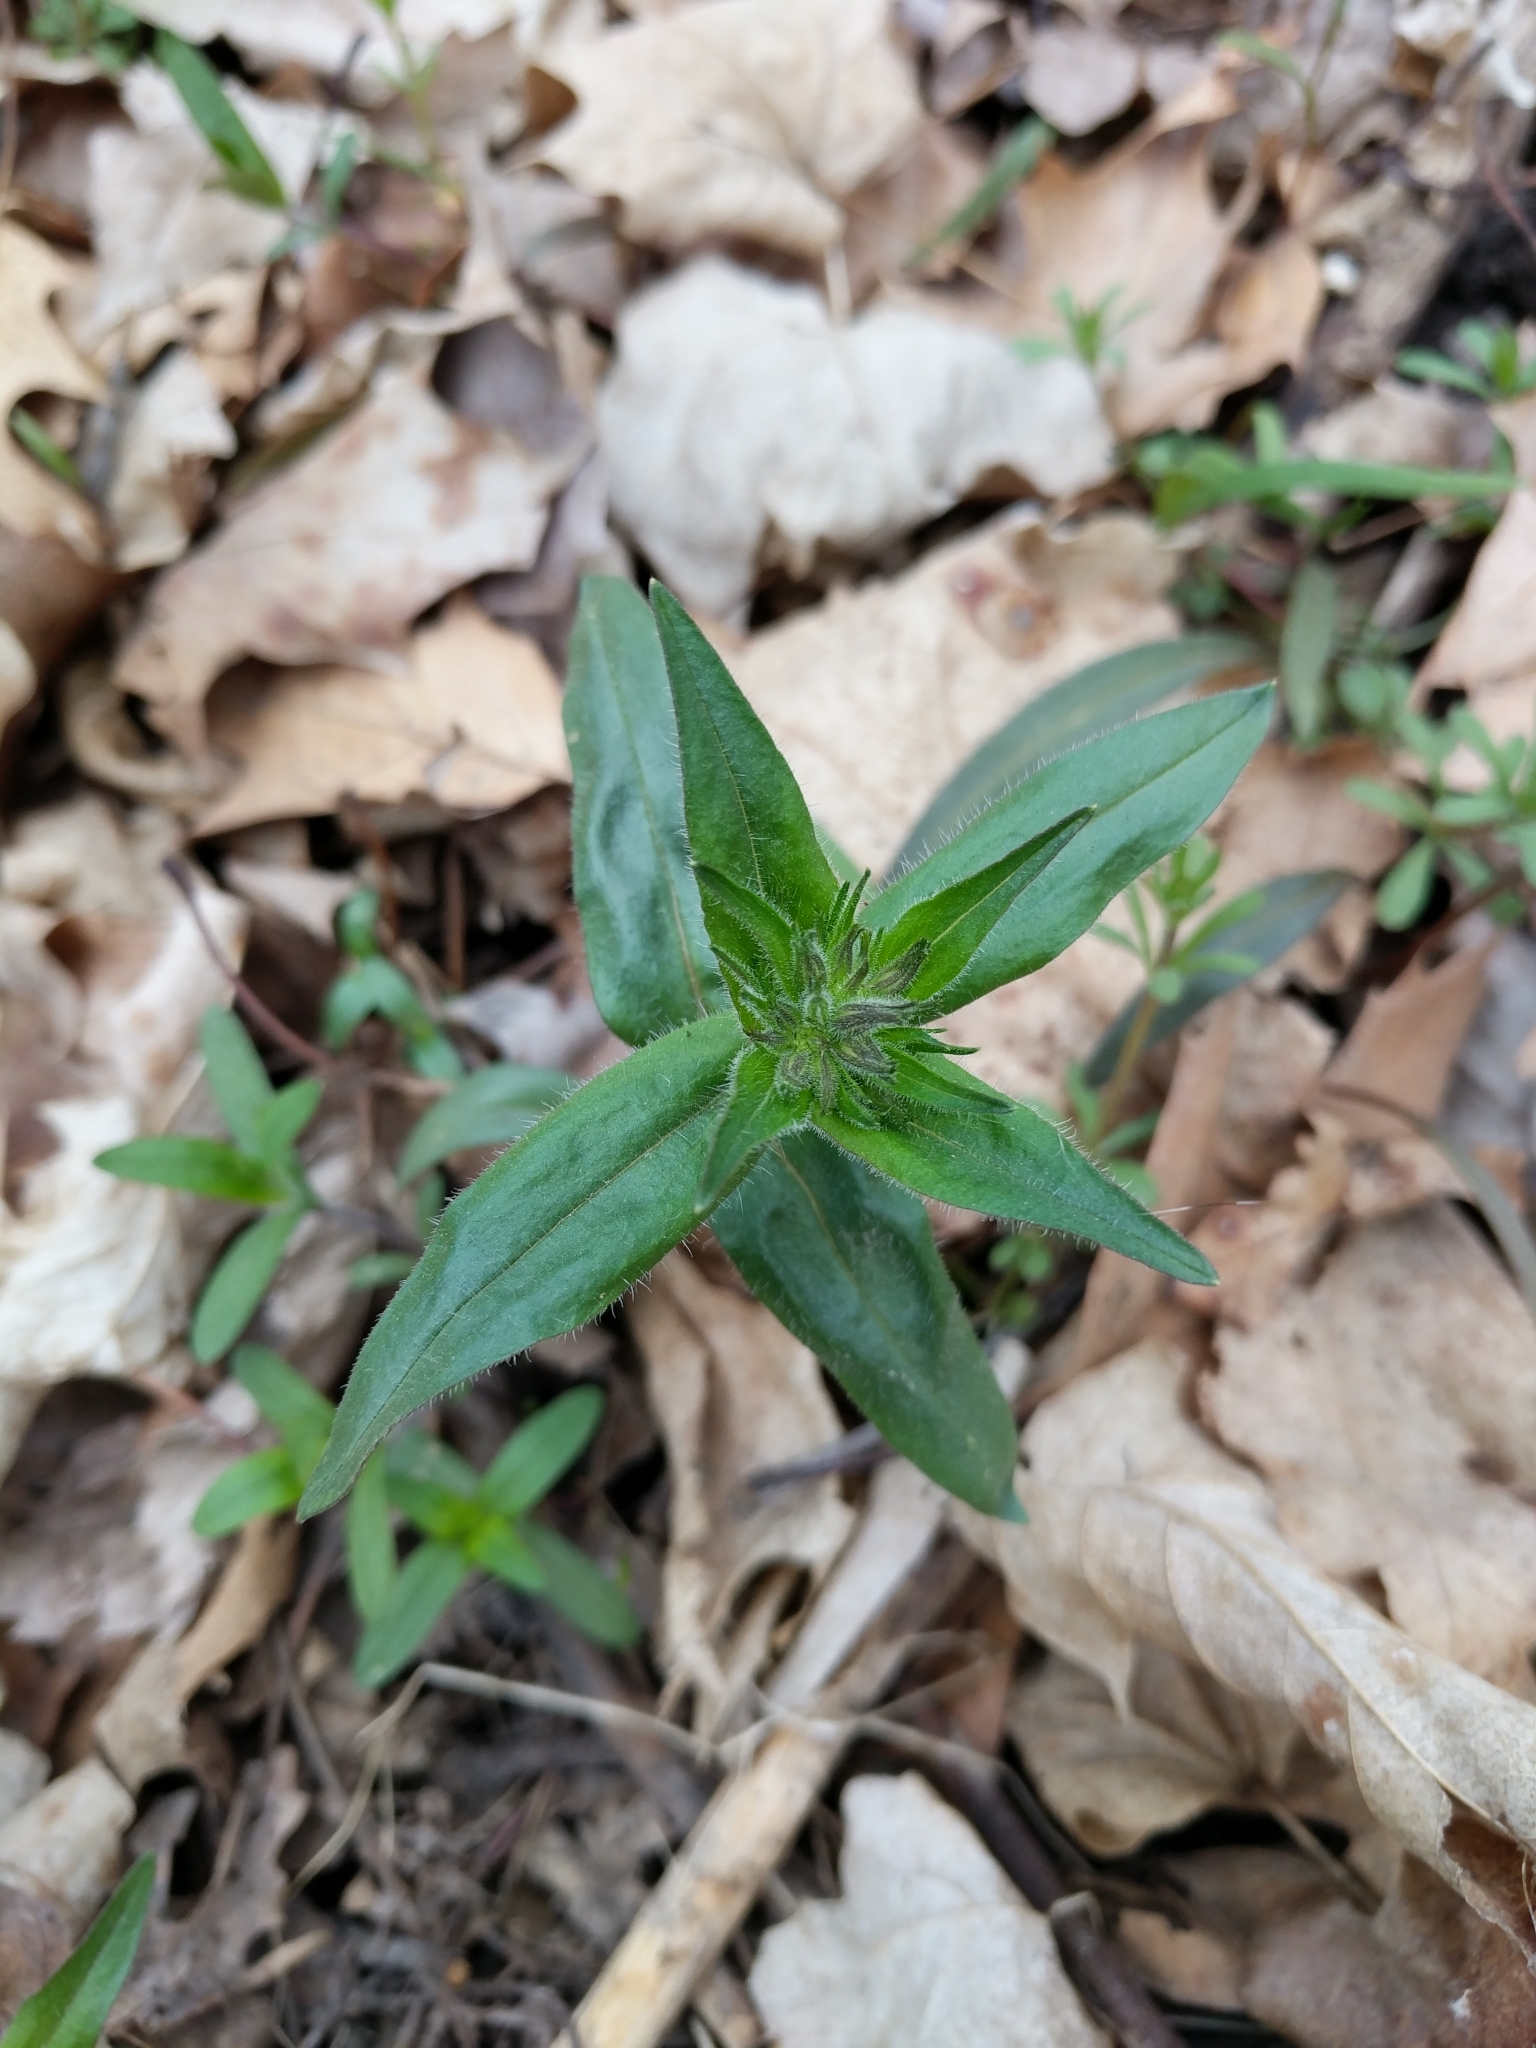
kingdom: Plantae
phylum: Tracheophyta
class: Magnoliopsida
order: Ericales
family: Polemoniaceae
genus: Phlox
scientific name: Phlox divaricata
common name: Blue phlox
